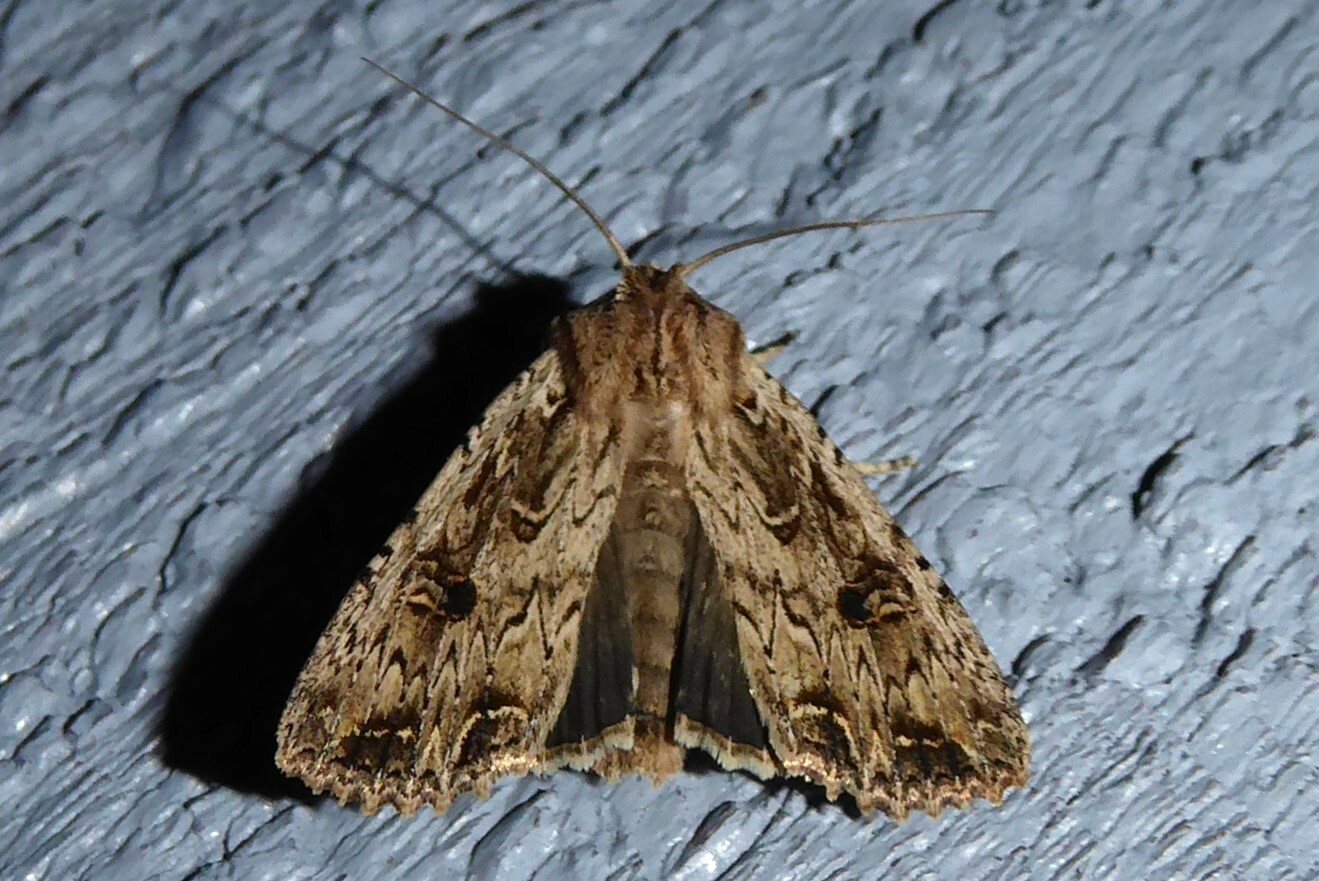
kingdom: Animalia
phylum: Arthropoda
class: Insecta
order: Lepidoptera
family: Noctuidae
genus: Ichneutica
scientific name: Ichneutica lignana
